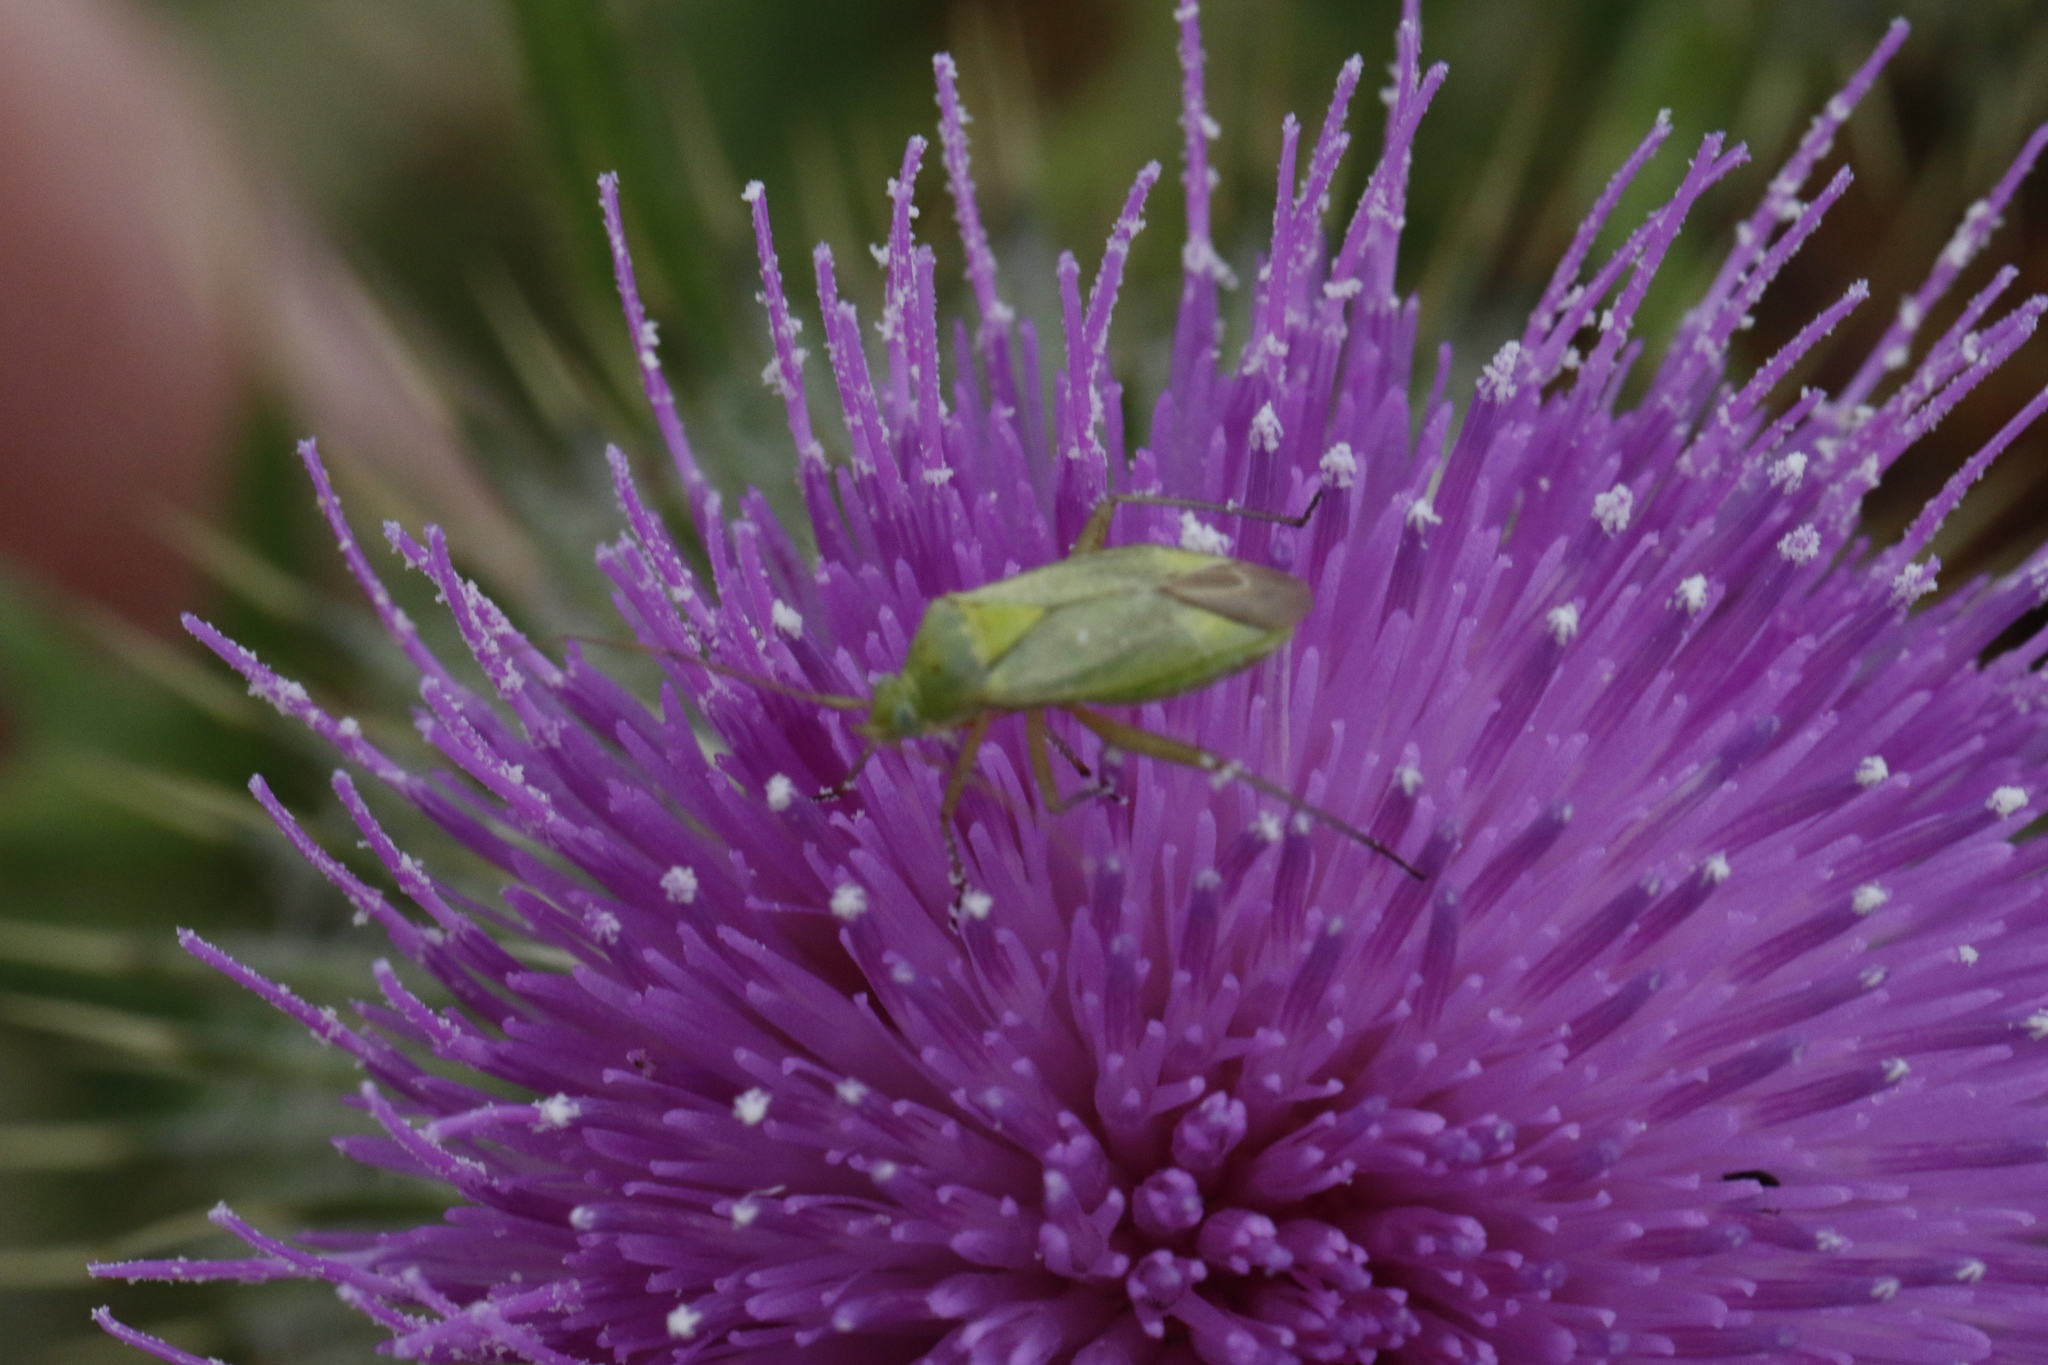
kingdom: Animalia
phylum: Arthropoda
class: Insecta
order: Hemiptera
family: Miridae
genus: Closterotomus
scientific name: Closterotomus norvegicus
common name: Plant bug
